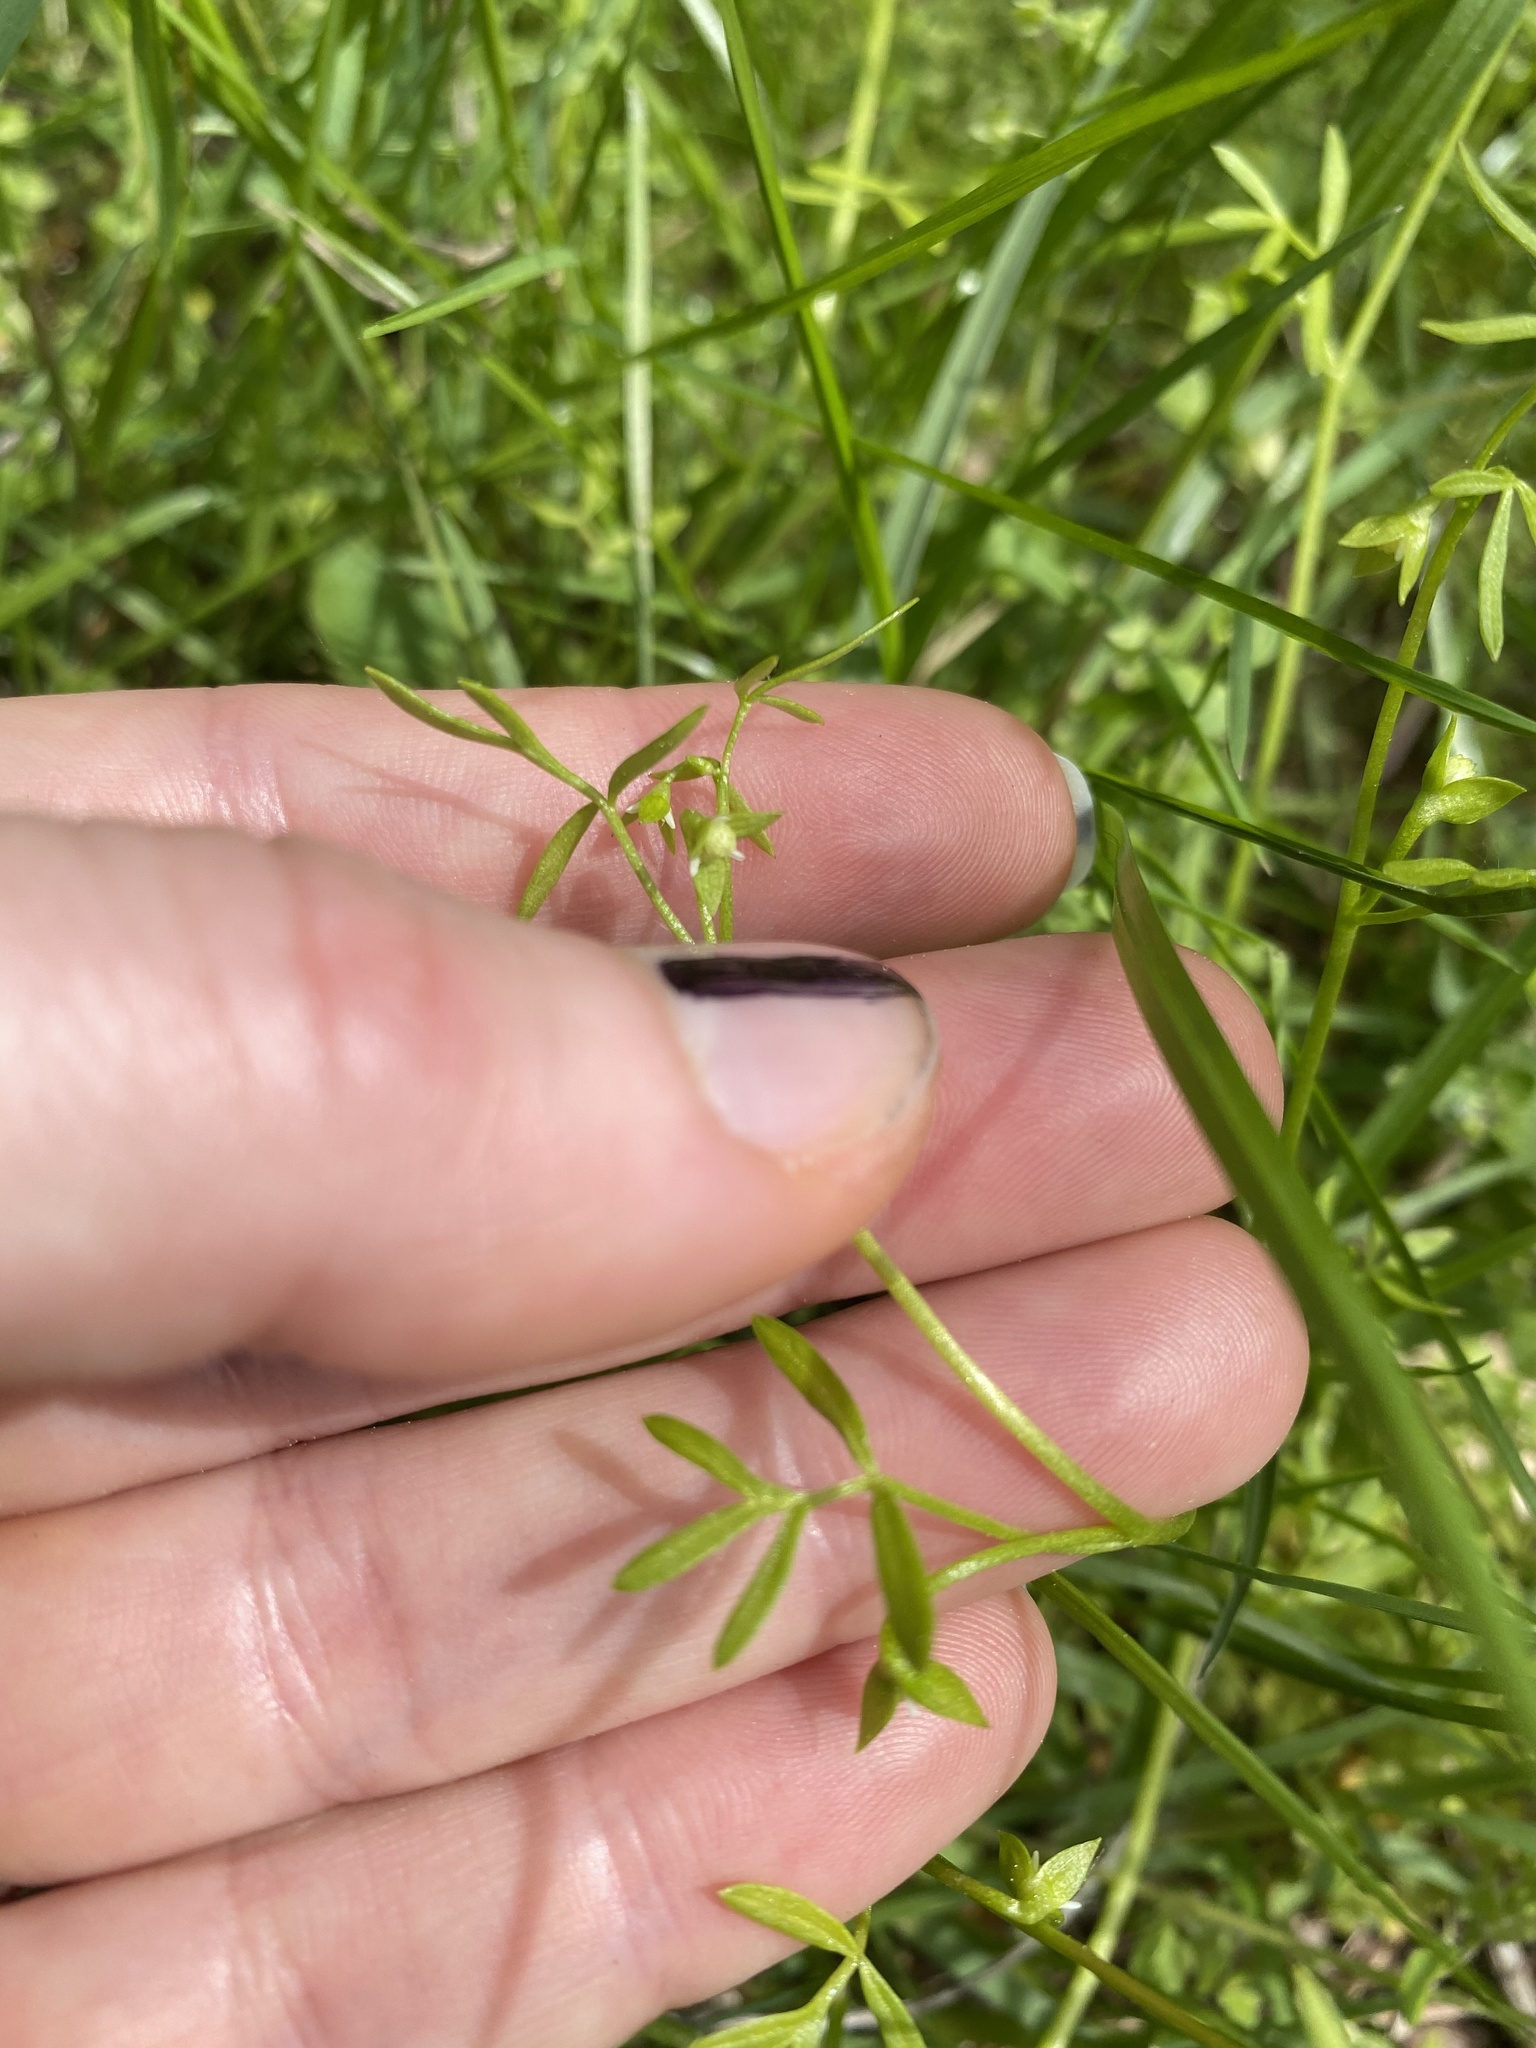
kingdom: Plantae
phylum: Tracheophyta
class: Magnoliopsida
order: Brassicales
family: Limnanthaceae
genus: Floerkea
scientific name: Floerkea proserpinacoides
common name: False mermaid
